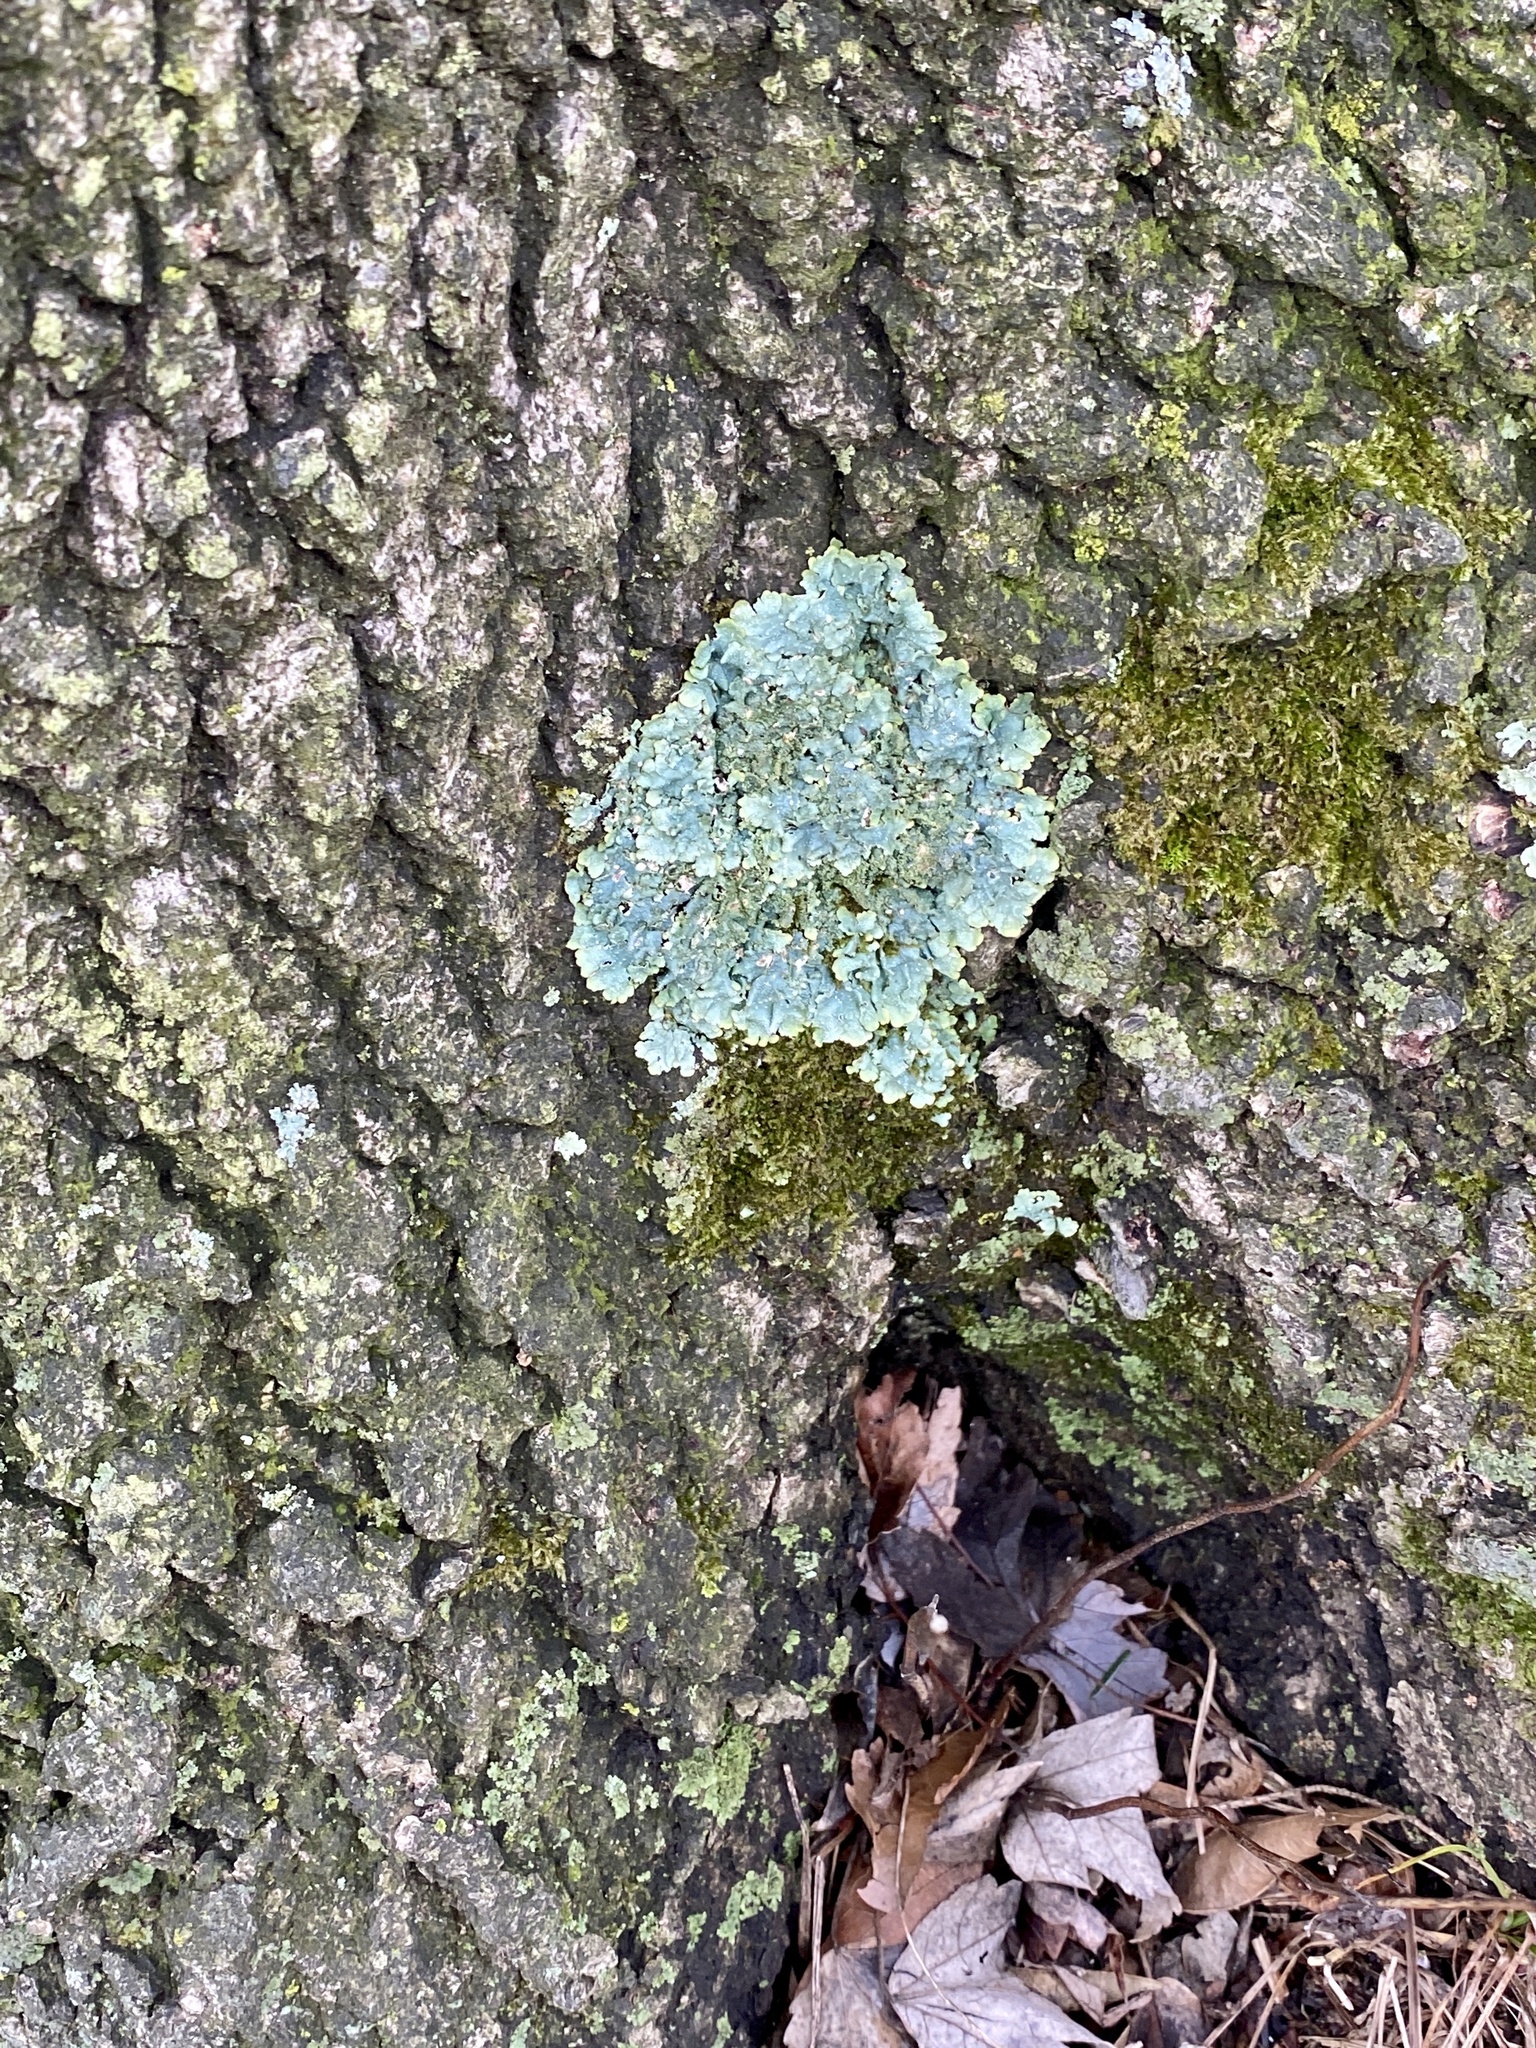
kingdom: Fungi
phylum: Ascomycota
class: Lecanoromycetes
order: Lecanorales
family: Parmeliaceae
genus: Punctelia
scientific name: Punctelia rudecta
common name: Rough speckled shield lichen
